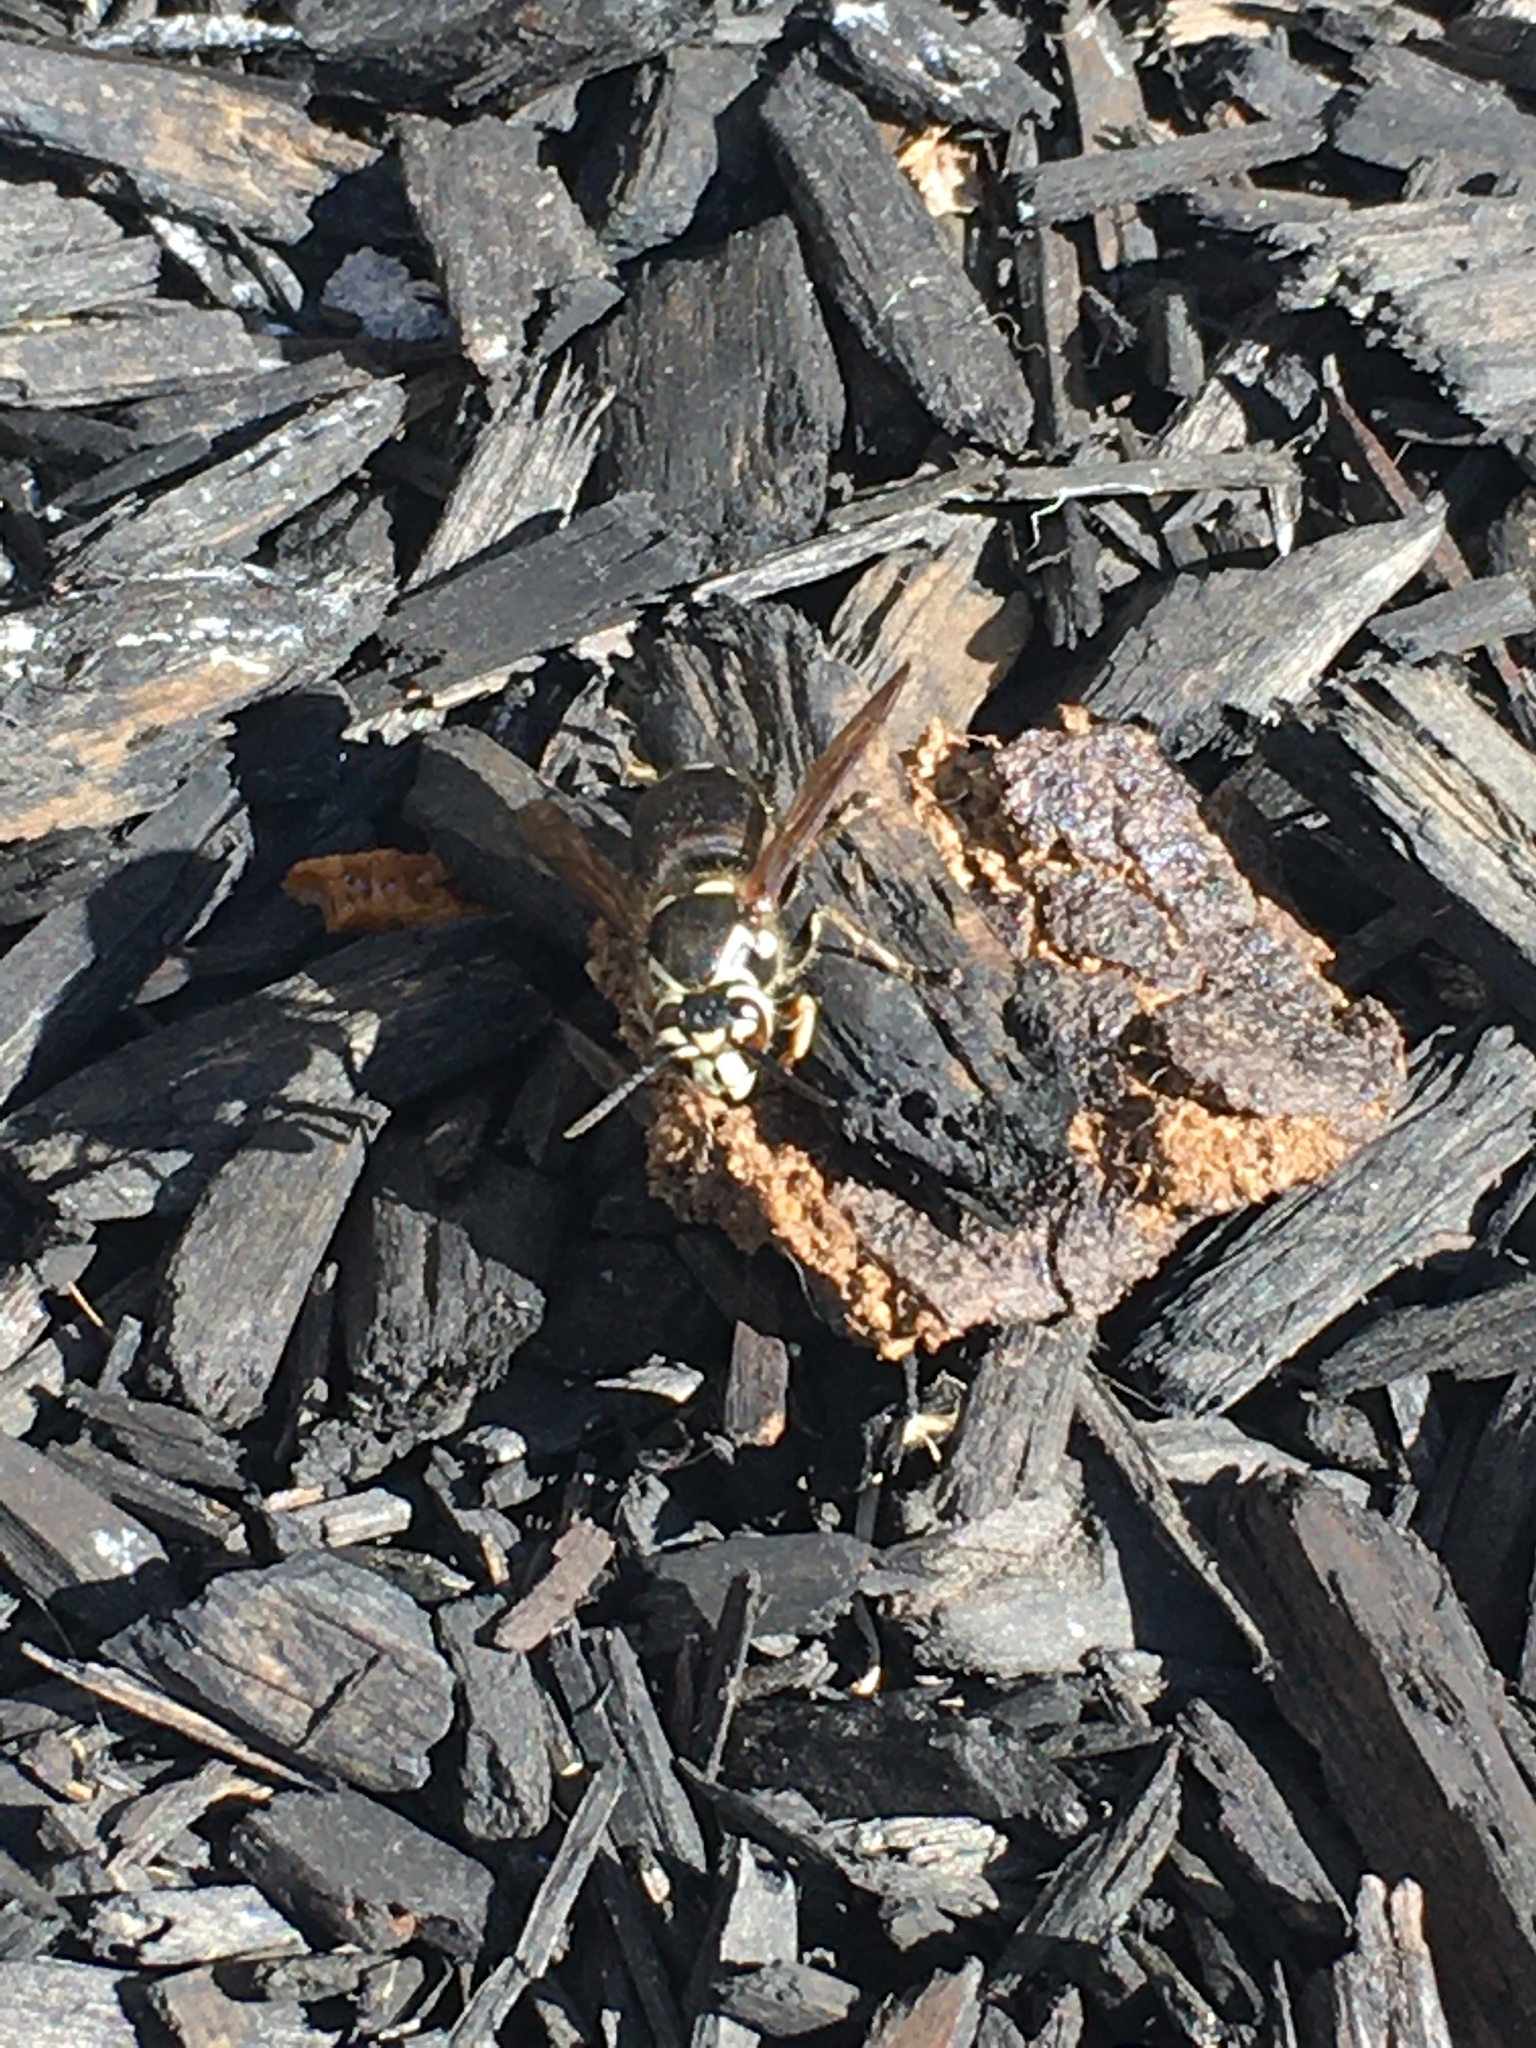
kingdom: Animalia
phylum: Arthropoda
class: Insecta
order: Hymenoptera
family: Vespidae
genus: Dolichovespula
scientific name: Dolichovespula maculata
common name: Bald-faced hornet
